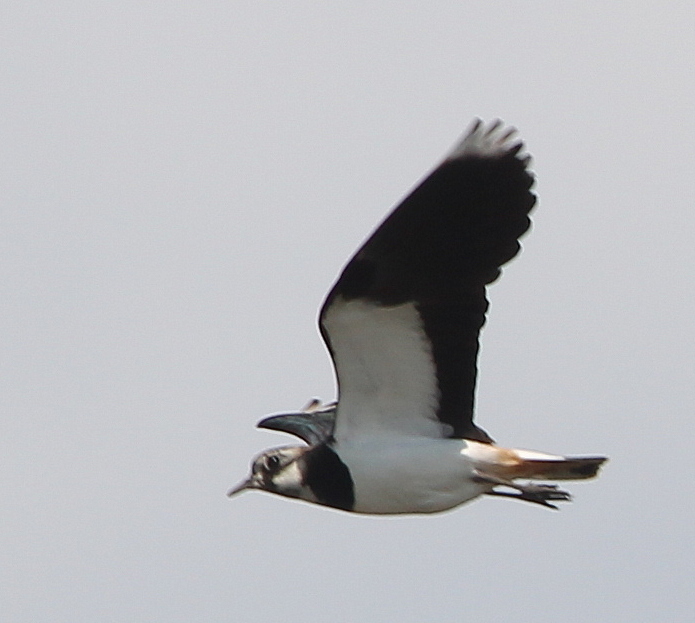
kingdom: Animalia
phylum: Chordata
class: Aves
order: Charadriiformes
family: Charadriidae
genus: Vanellus
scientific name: Vanellus vanellus
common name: Northern lapwing
